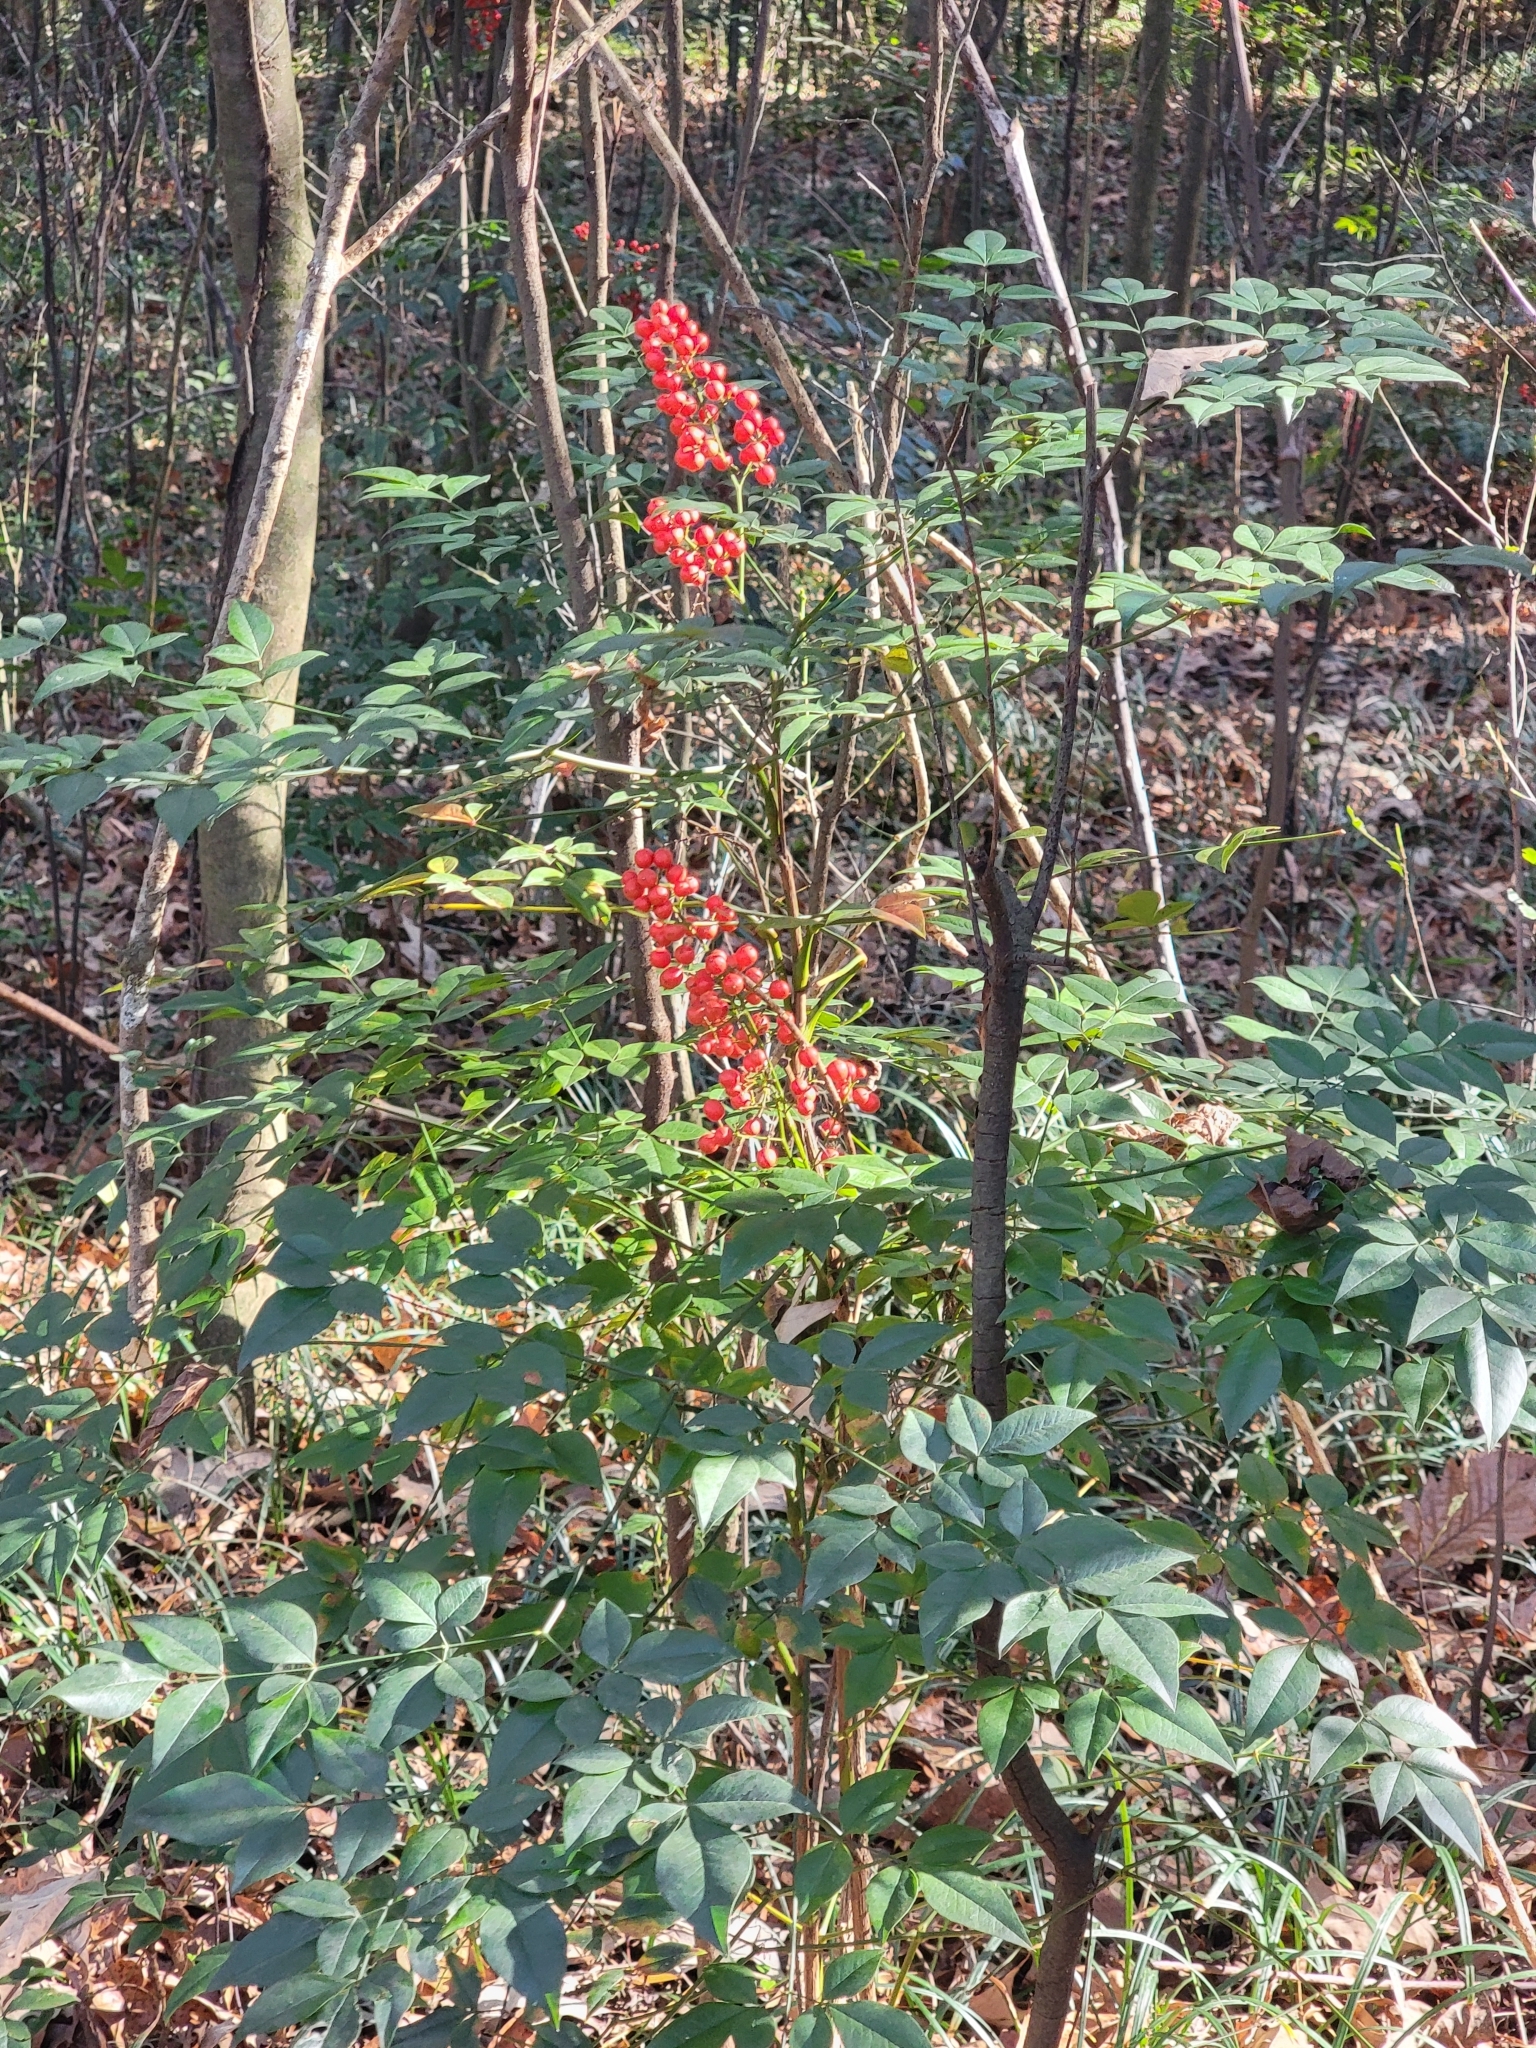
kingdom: Plantae
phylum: Tracheophyta
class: Magnoliopsida
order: Ranunculales
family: Berberidaceae
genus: Nandina
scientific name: Nandina domestica
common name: Sacred bamboo
